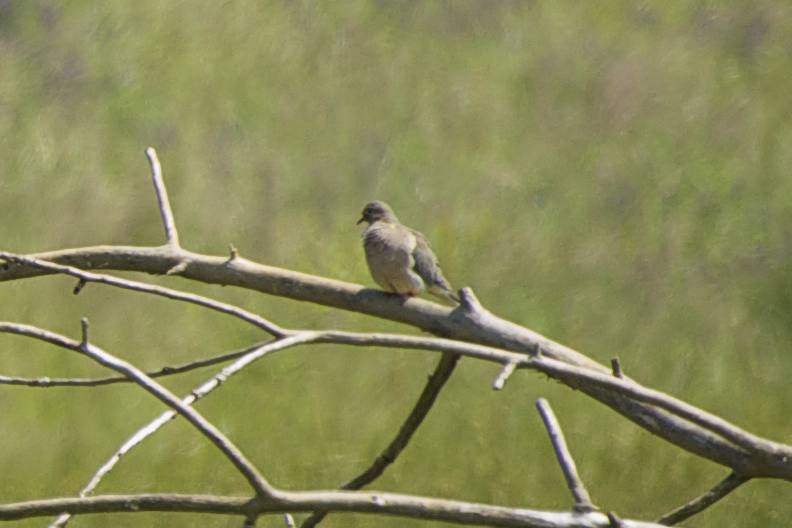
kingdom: Animalia
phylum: Chordata
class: Aves
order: Columbiformes
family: Columbidae
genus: Zenaida
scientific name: Zenaida macroura
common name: Mourning dove
